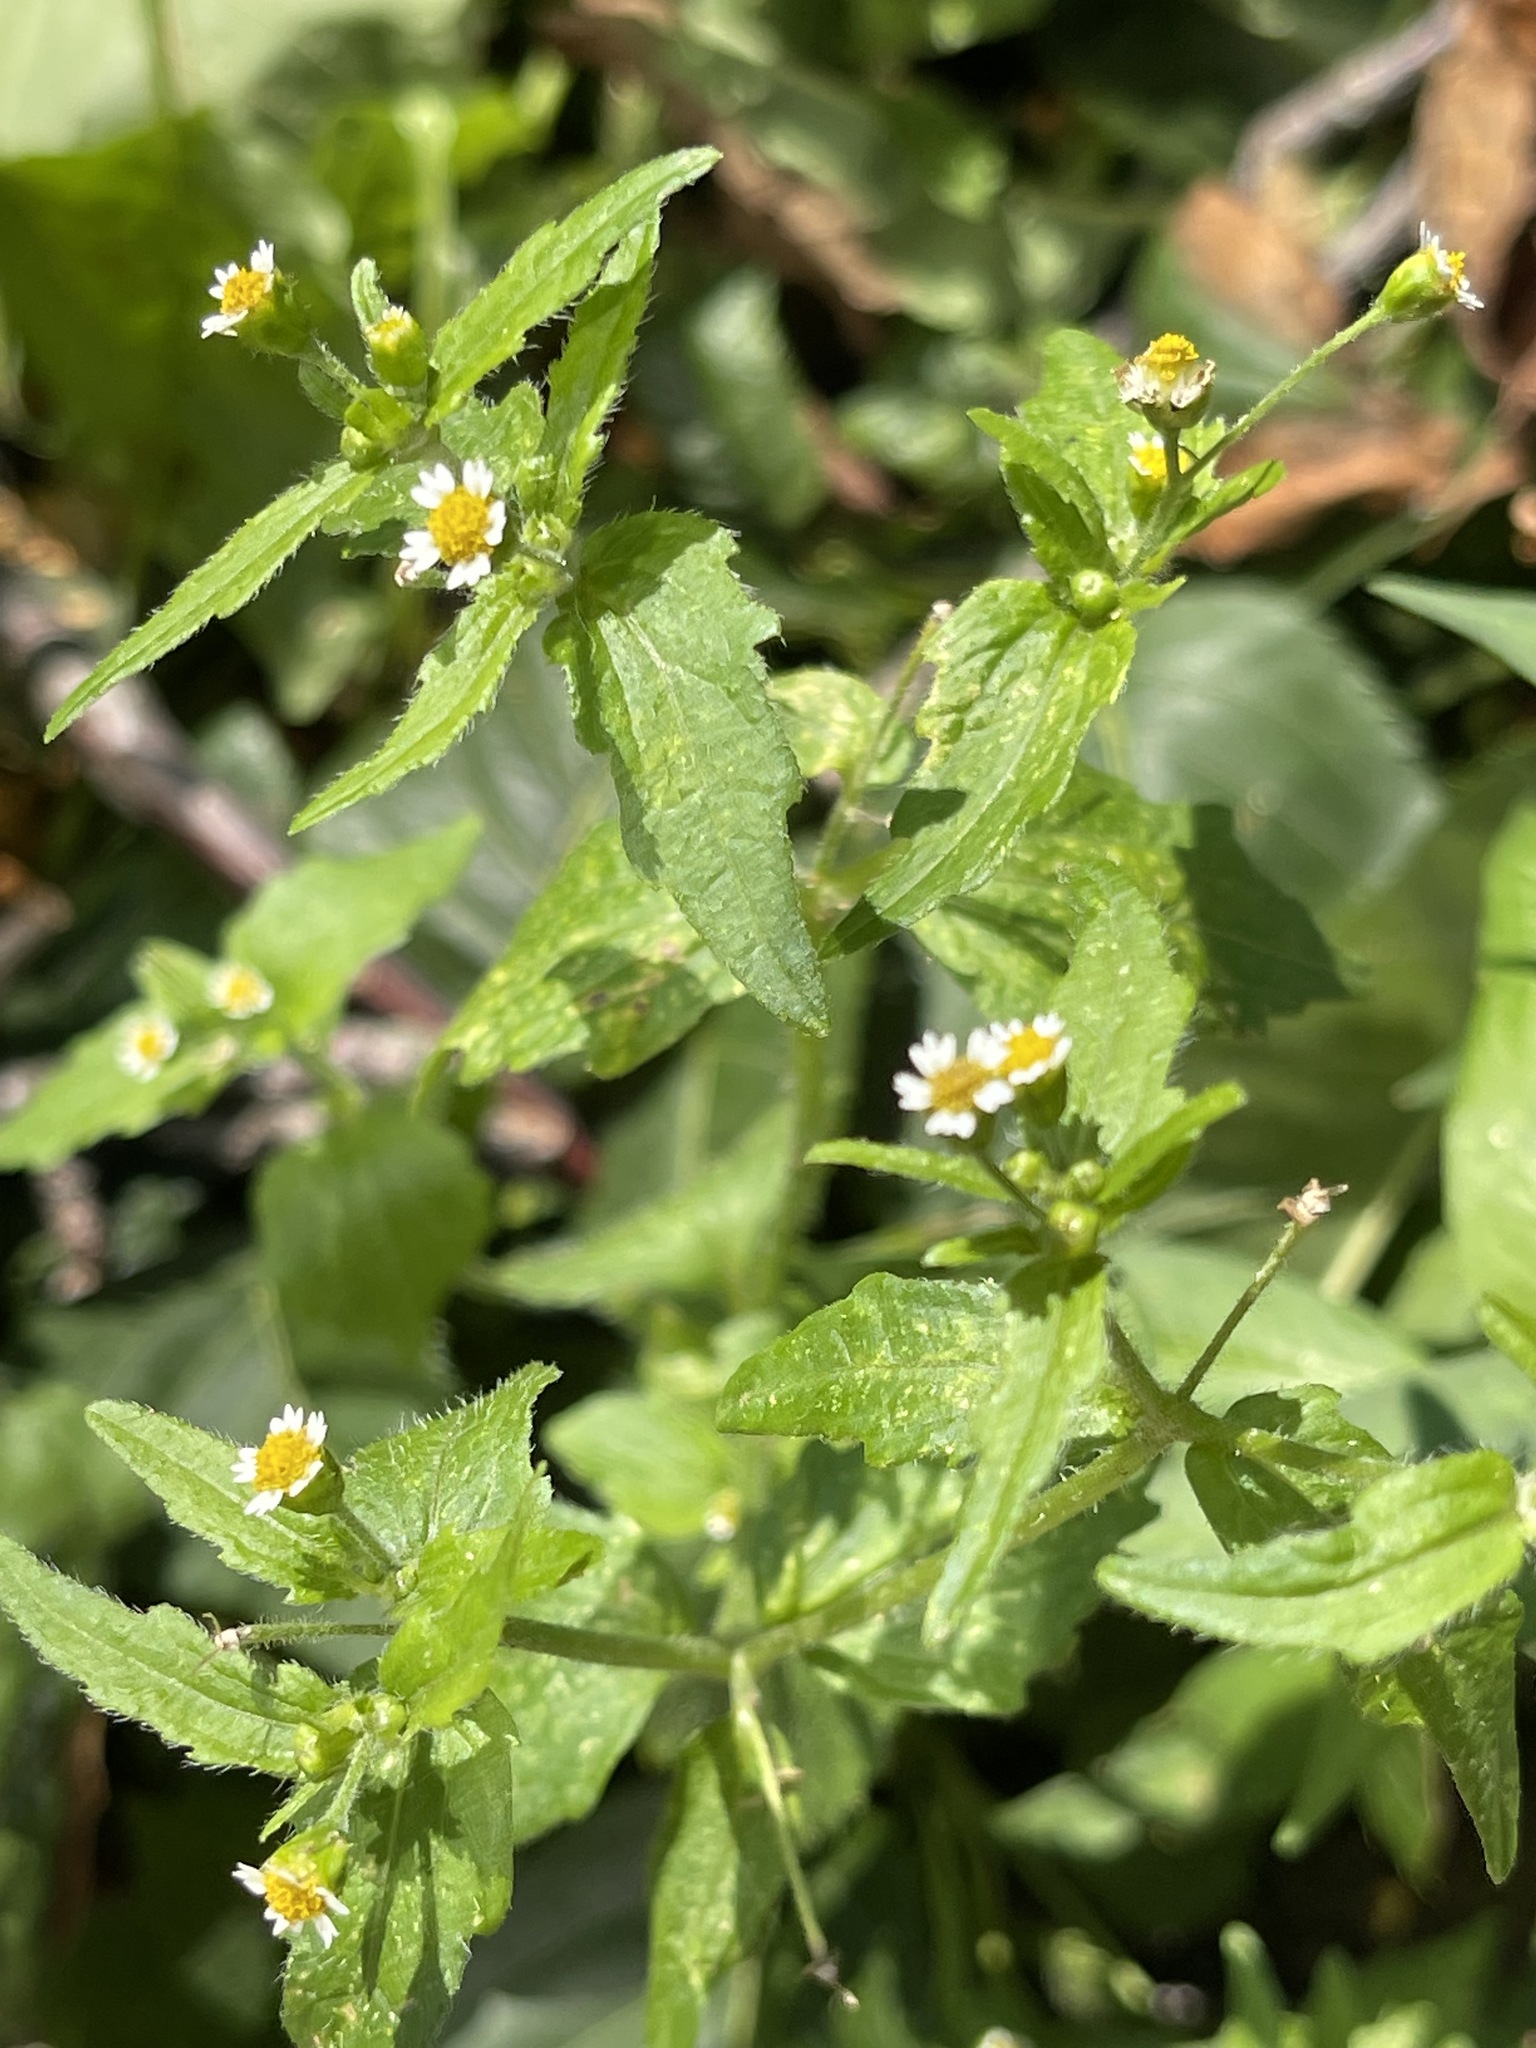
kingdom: Plantae
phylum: Tracheophyta
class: Magnoliopsida
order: Asterales
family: Asteraceae
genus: Galinsoga
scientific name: Galinsoga quadriradiata
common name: Shaggy soldier
